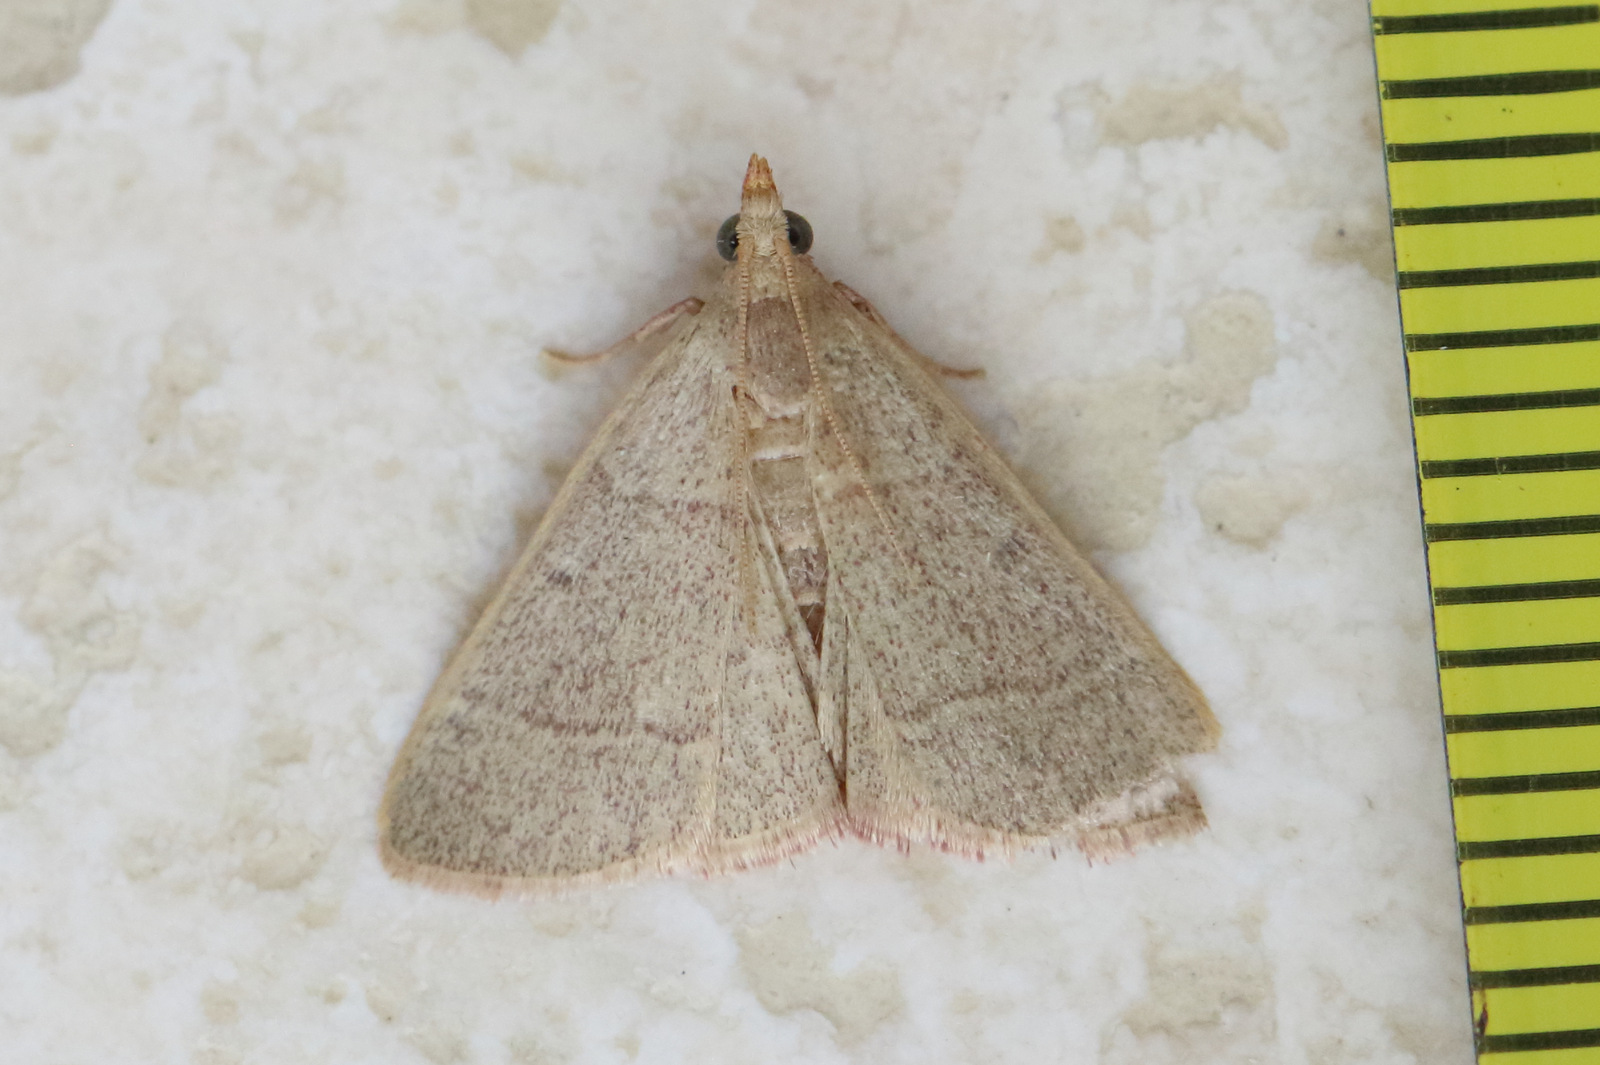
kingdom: Animalia
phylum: Arthropoda
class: Insecta
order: Lepidoptera
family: Pyralidae
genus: Hypsopygia
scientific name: Hypsopygia
